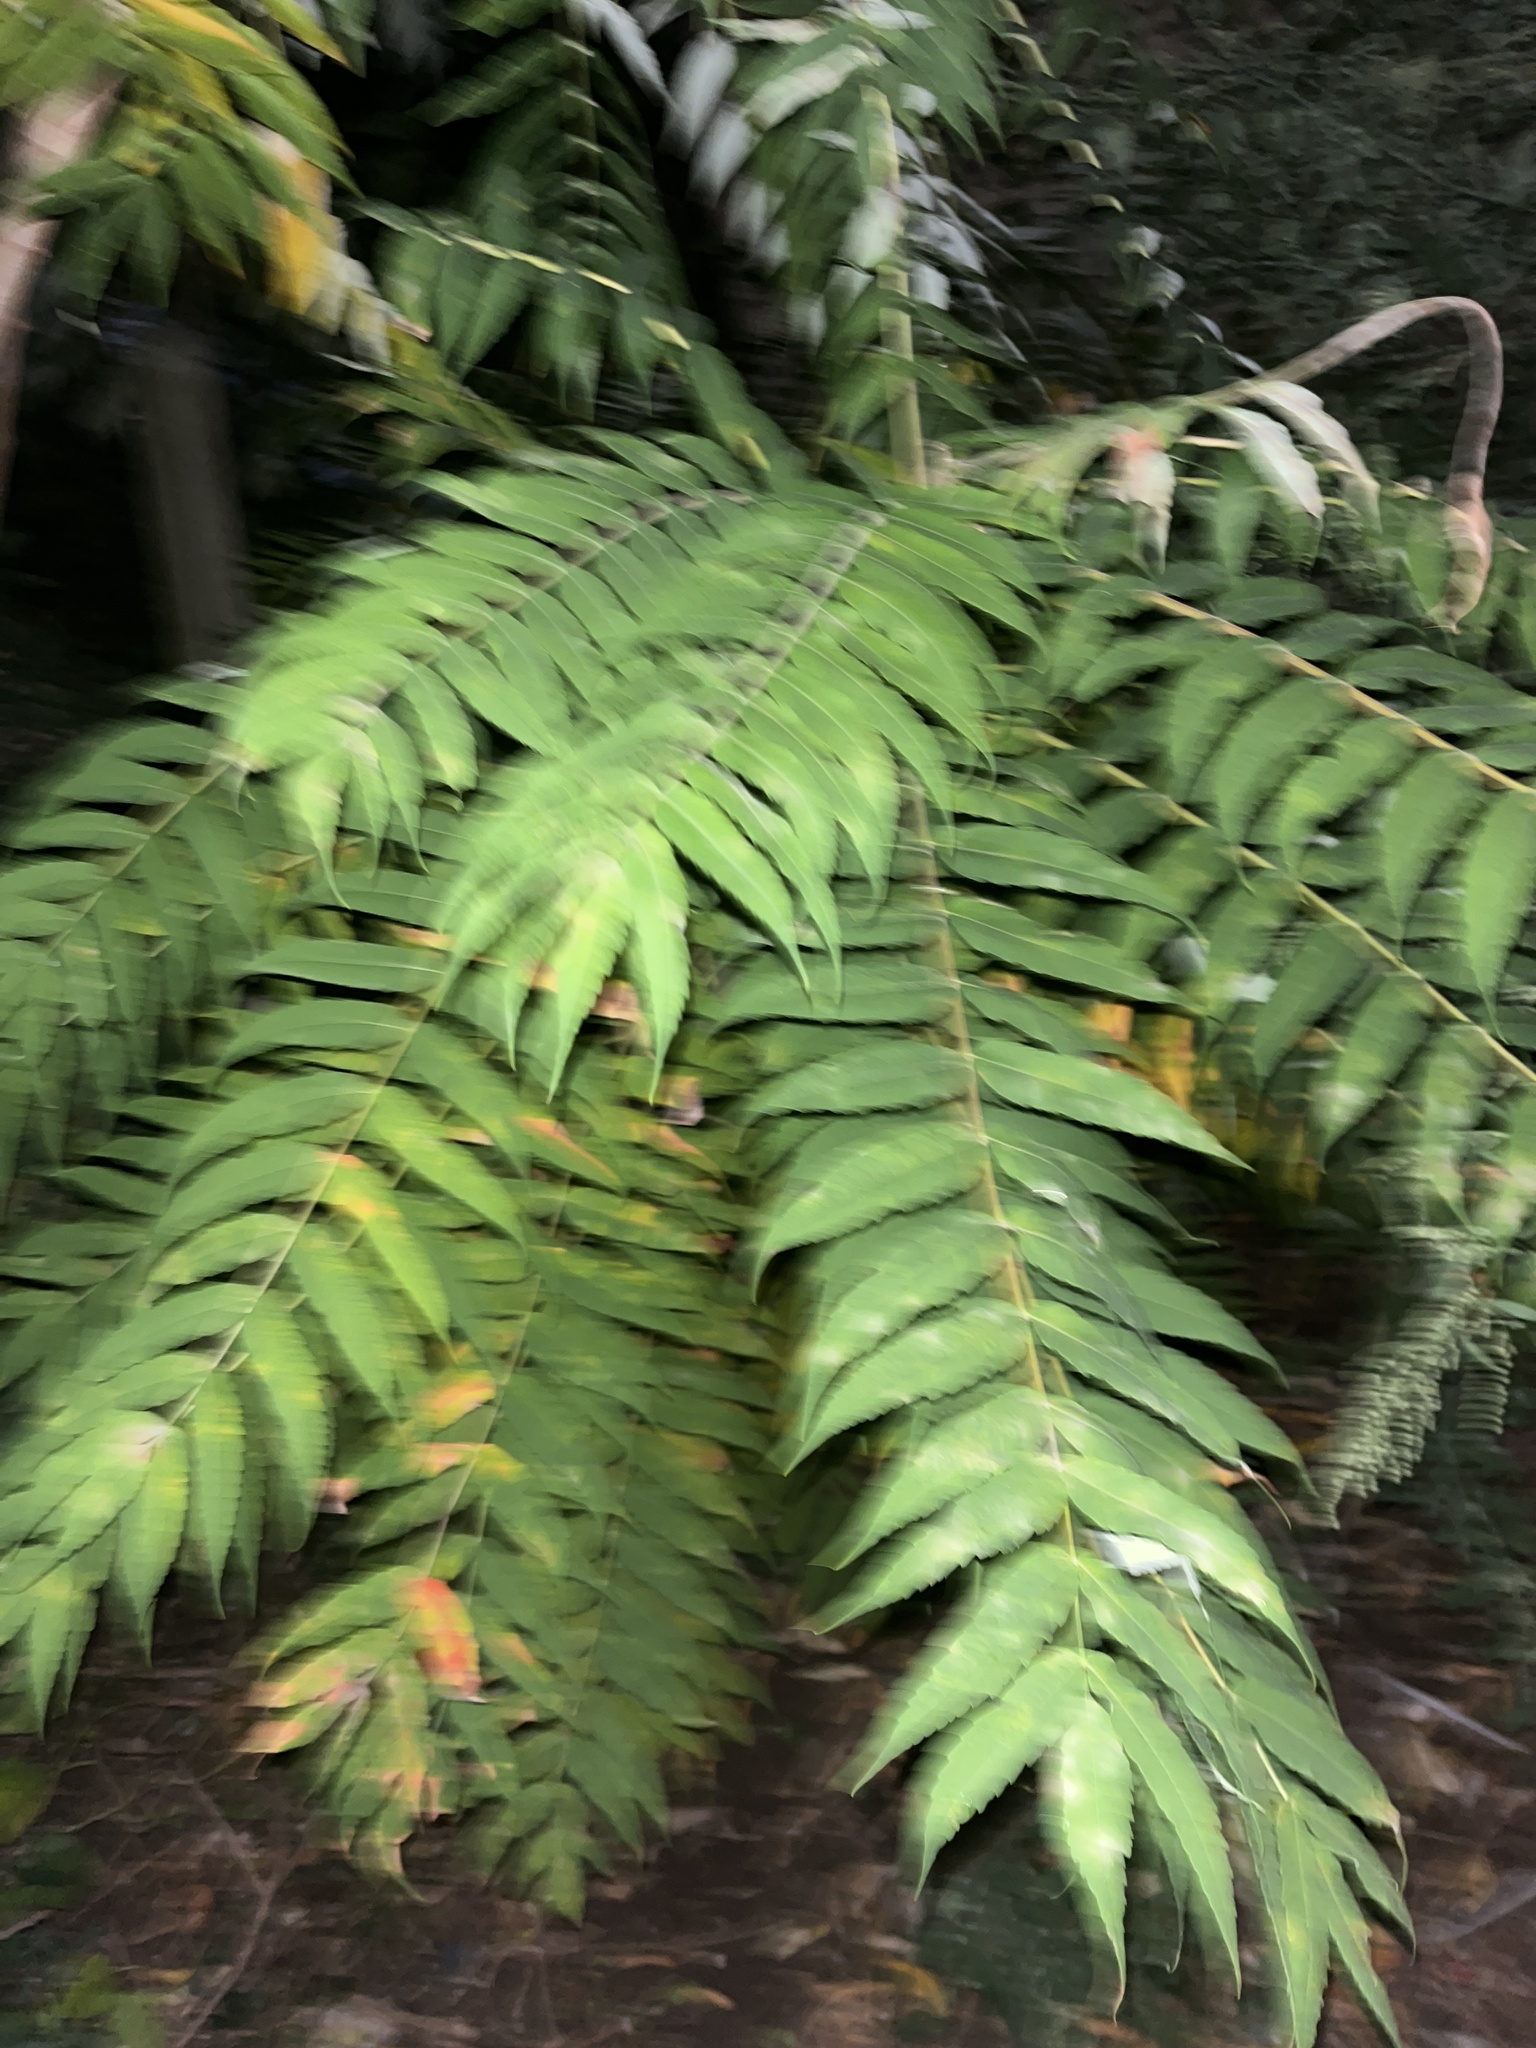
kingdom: Plantae
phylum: Tracheophyta
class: Magnoliopsida
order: Sapindales
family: Anacardiaceae
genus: Rhus
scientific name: Rhus typhina
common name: Staghorn sumac
